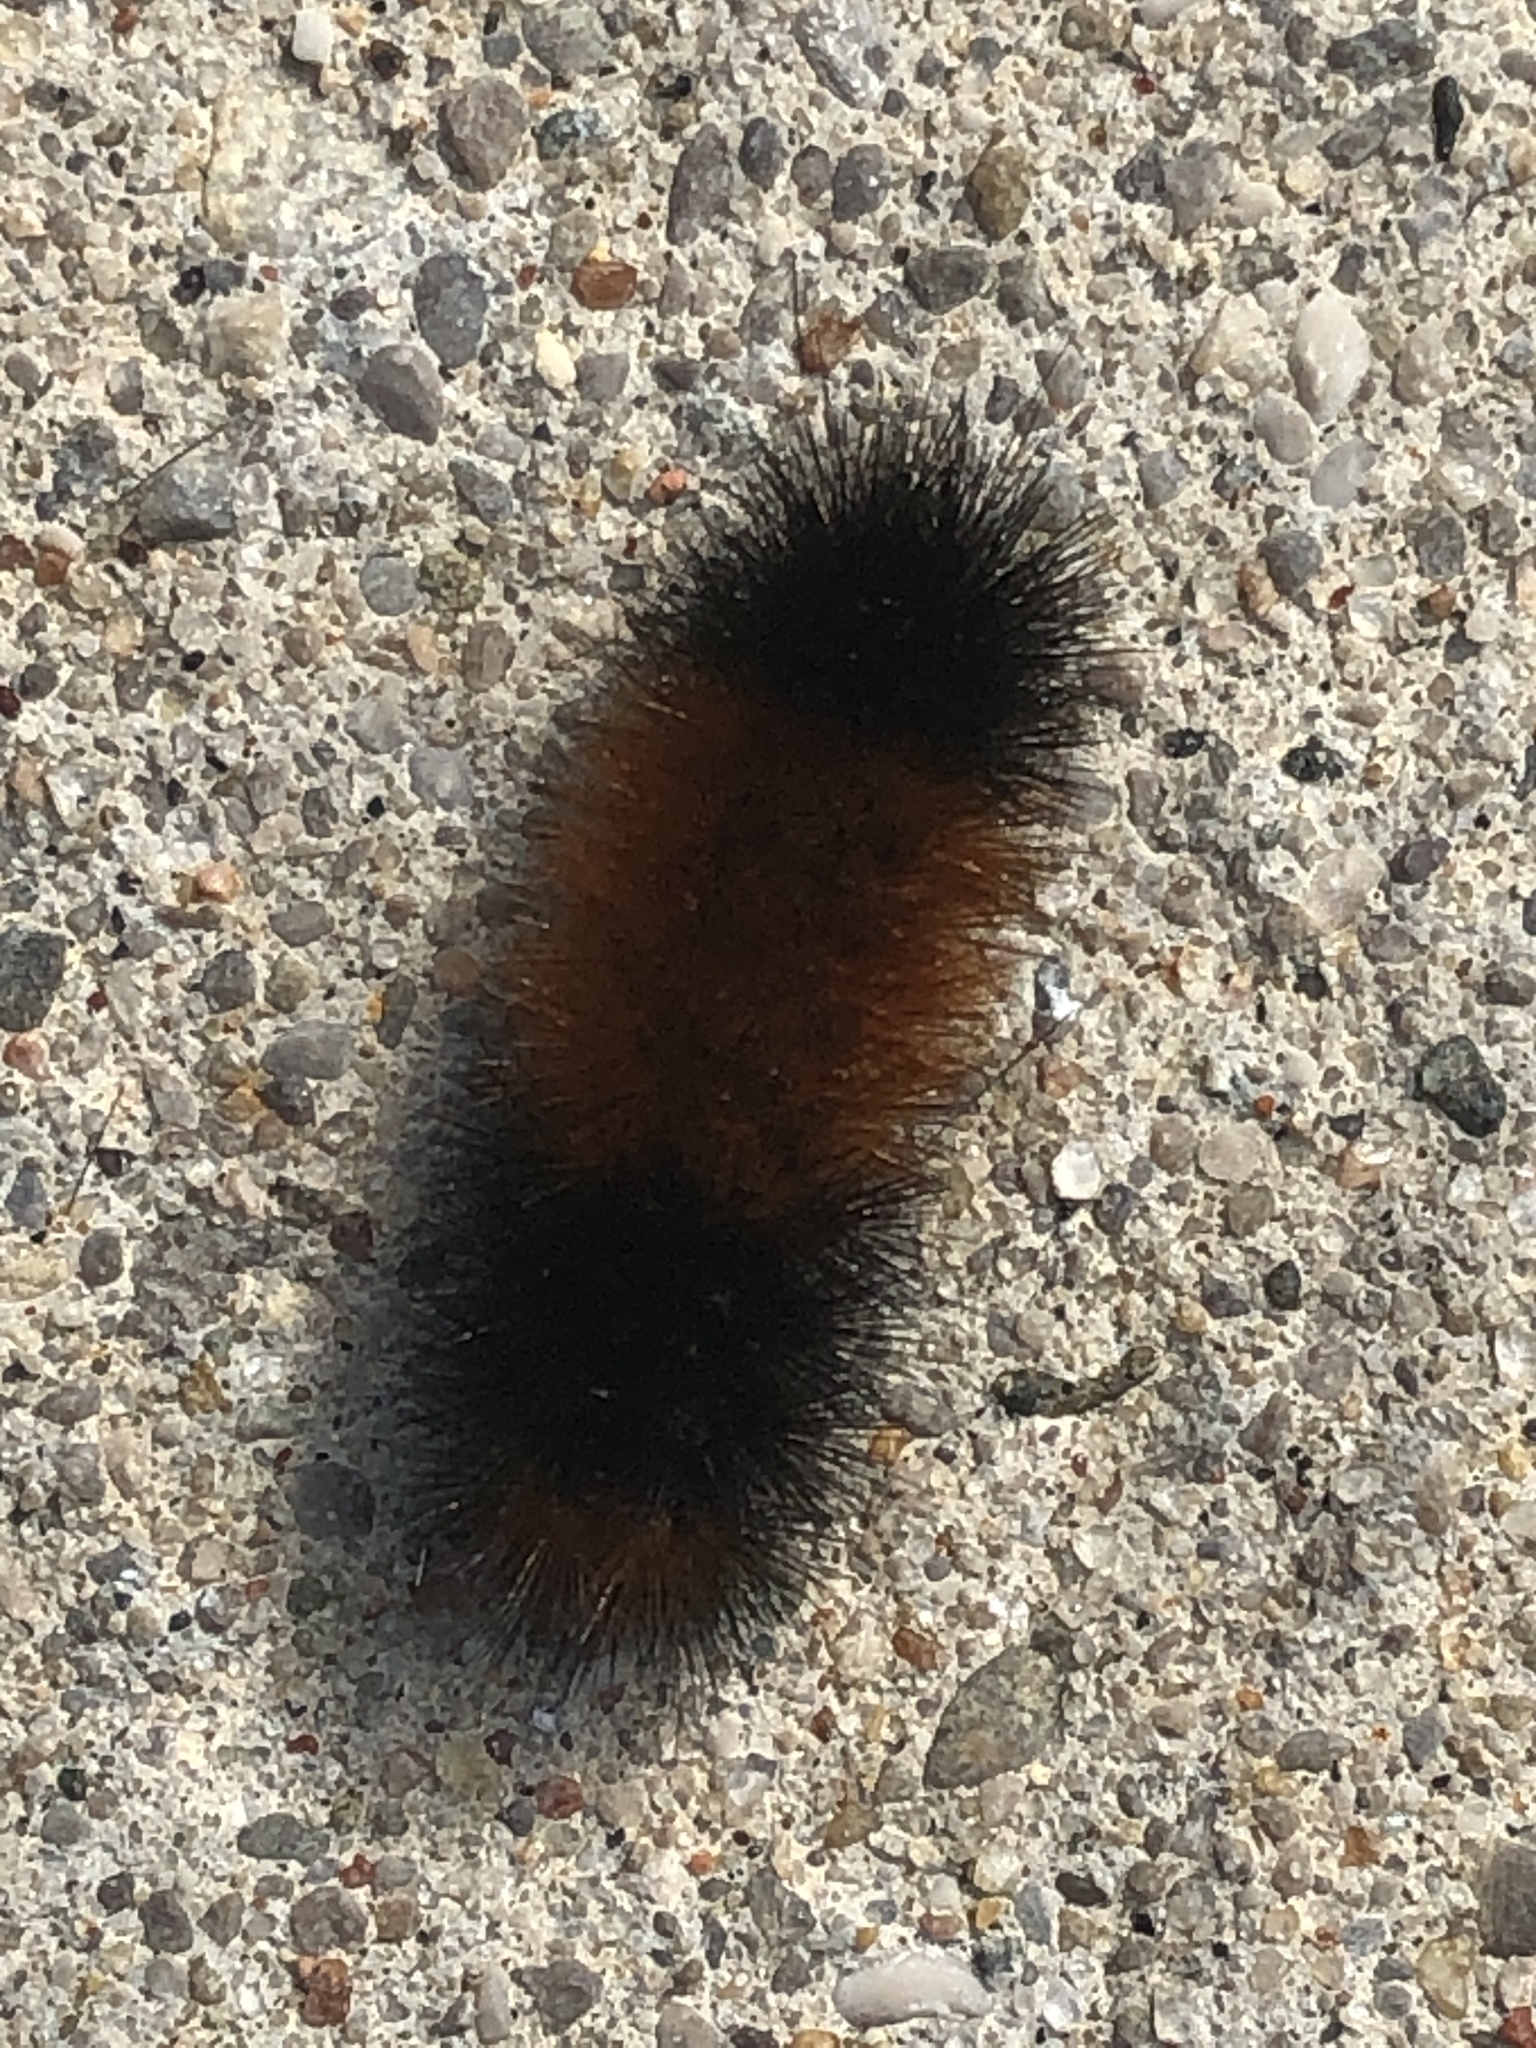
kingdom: Animalia
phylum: Arthropoda
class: Insecta
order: Lepidoptera
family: Erebidae
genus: Pyrrharctia
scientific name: Pyrrharctia isabella
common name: Isabella tiger moth
